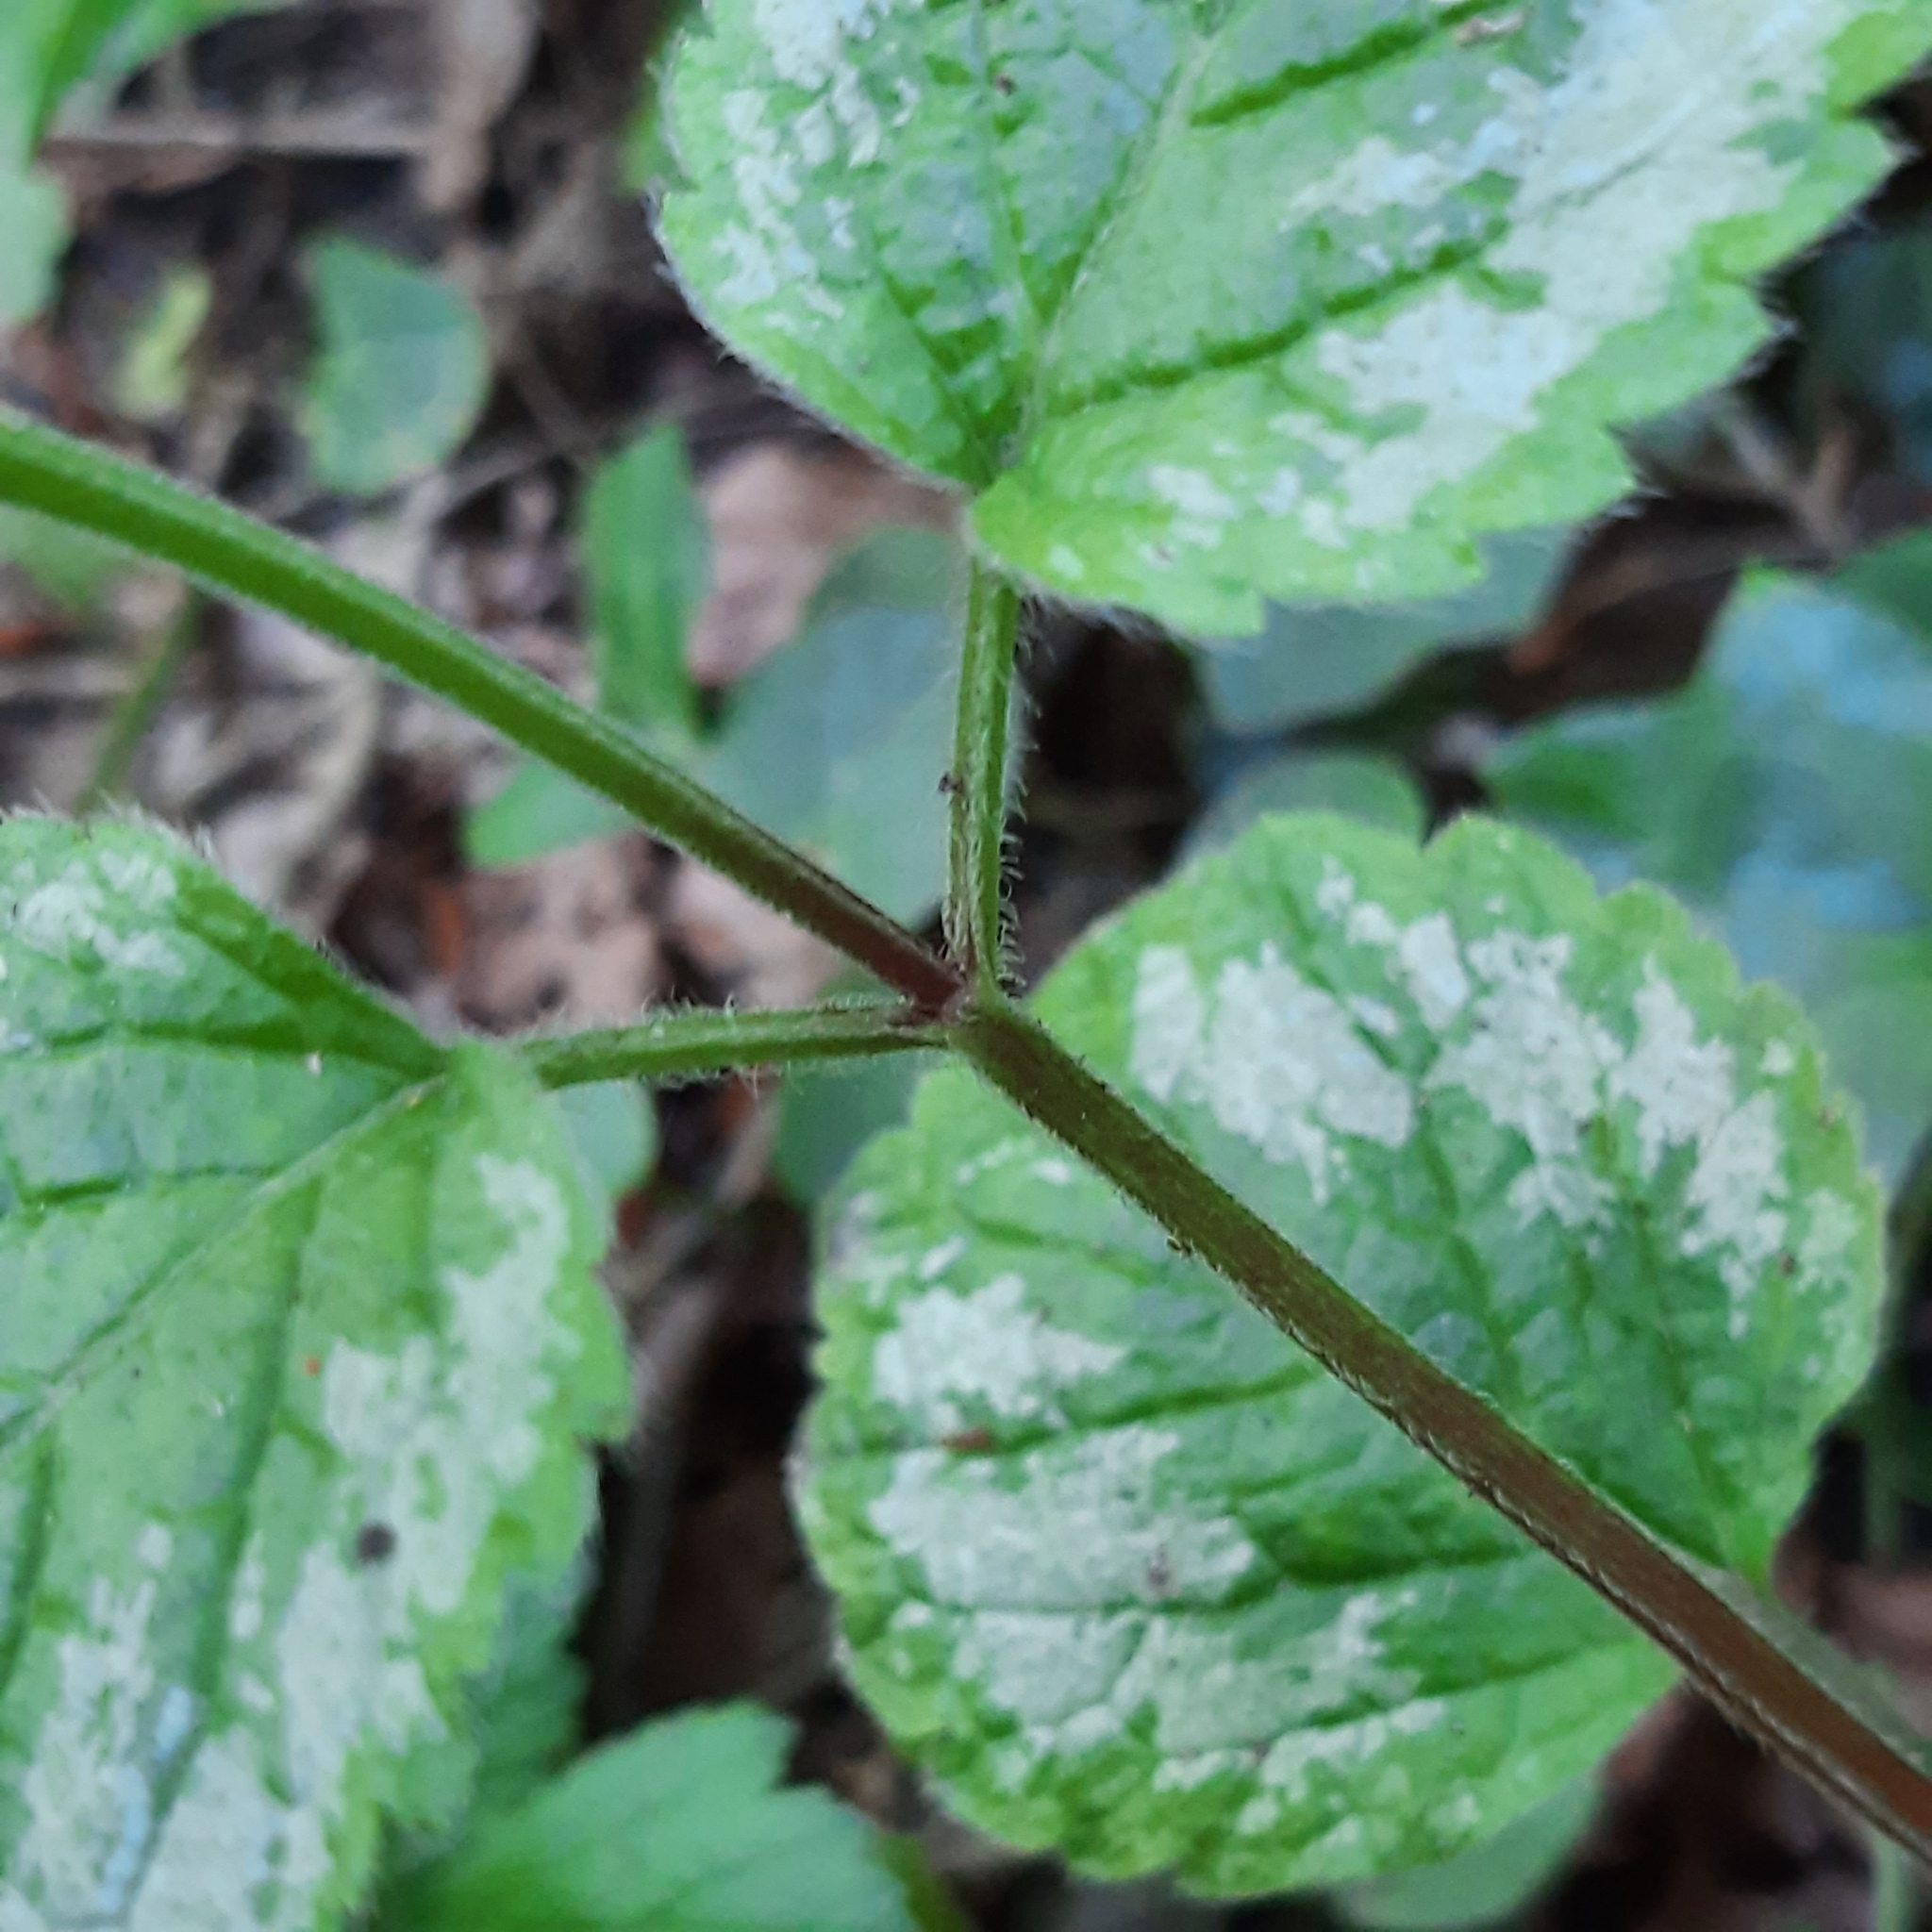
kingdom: Plantae
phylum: Tracheophyta
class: Magnoliopsida
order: Lamiales
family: Lamiaceae
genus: Lamium
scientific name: Lamium galeobdolon
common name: Yellow archangel
